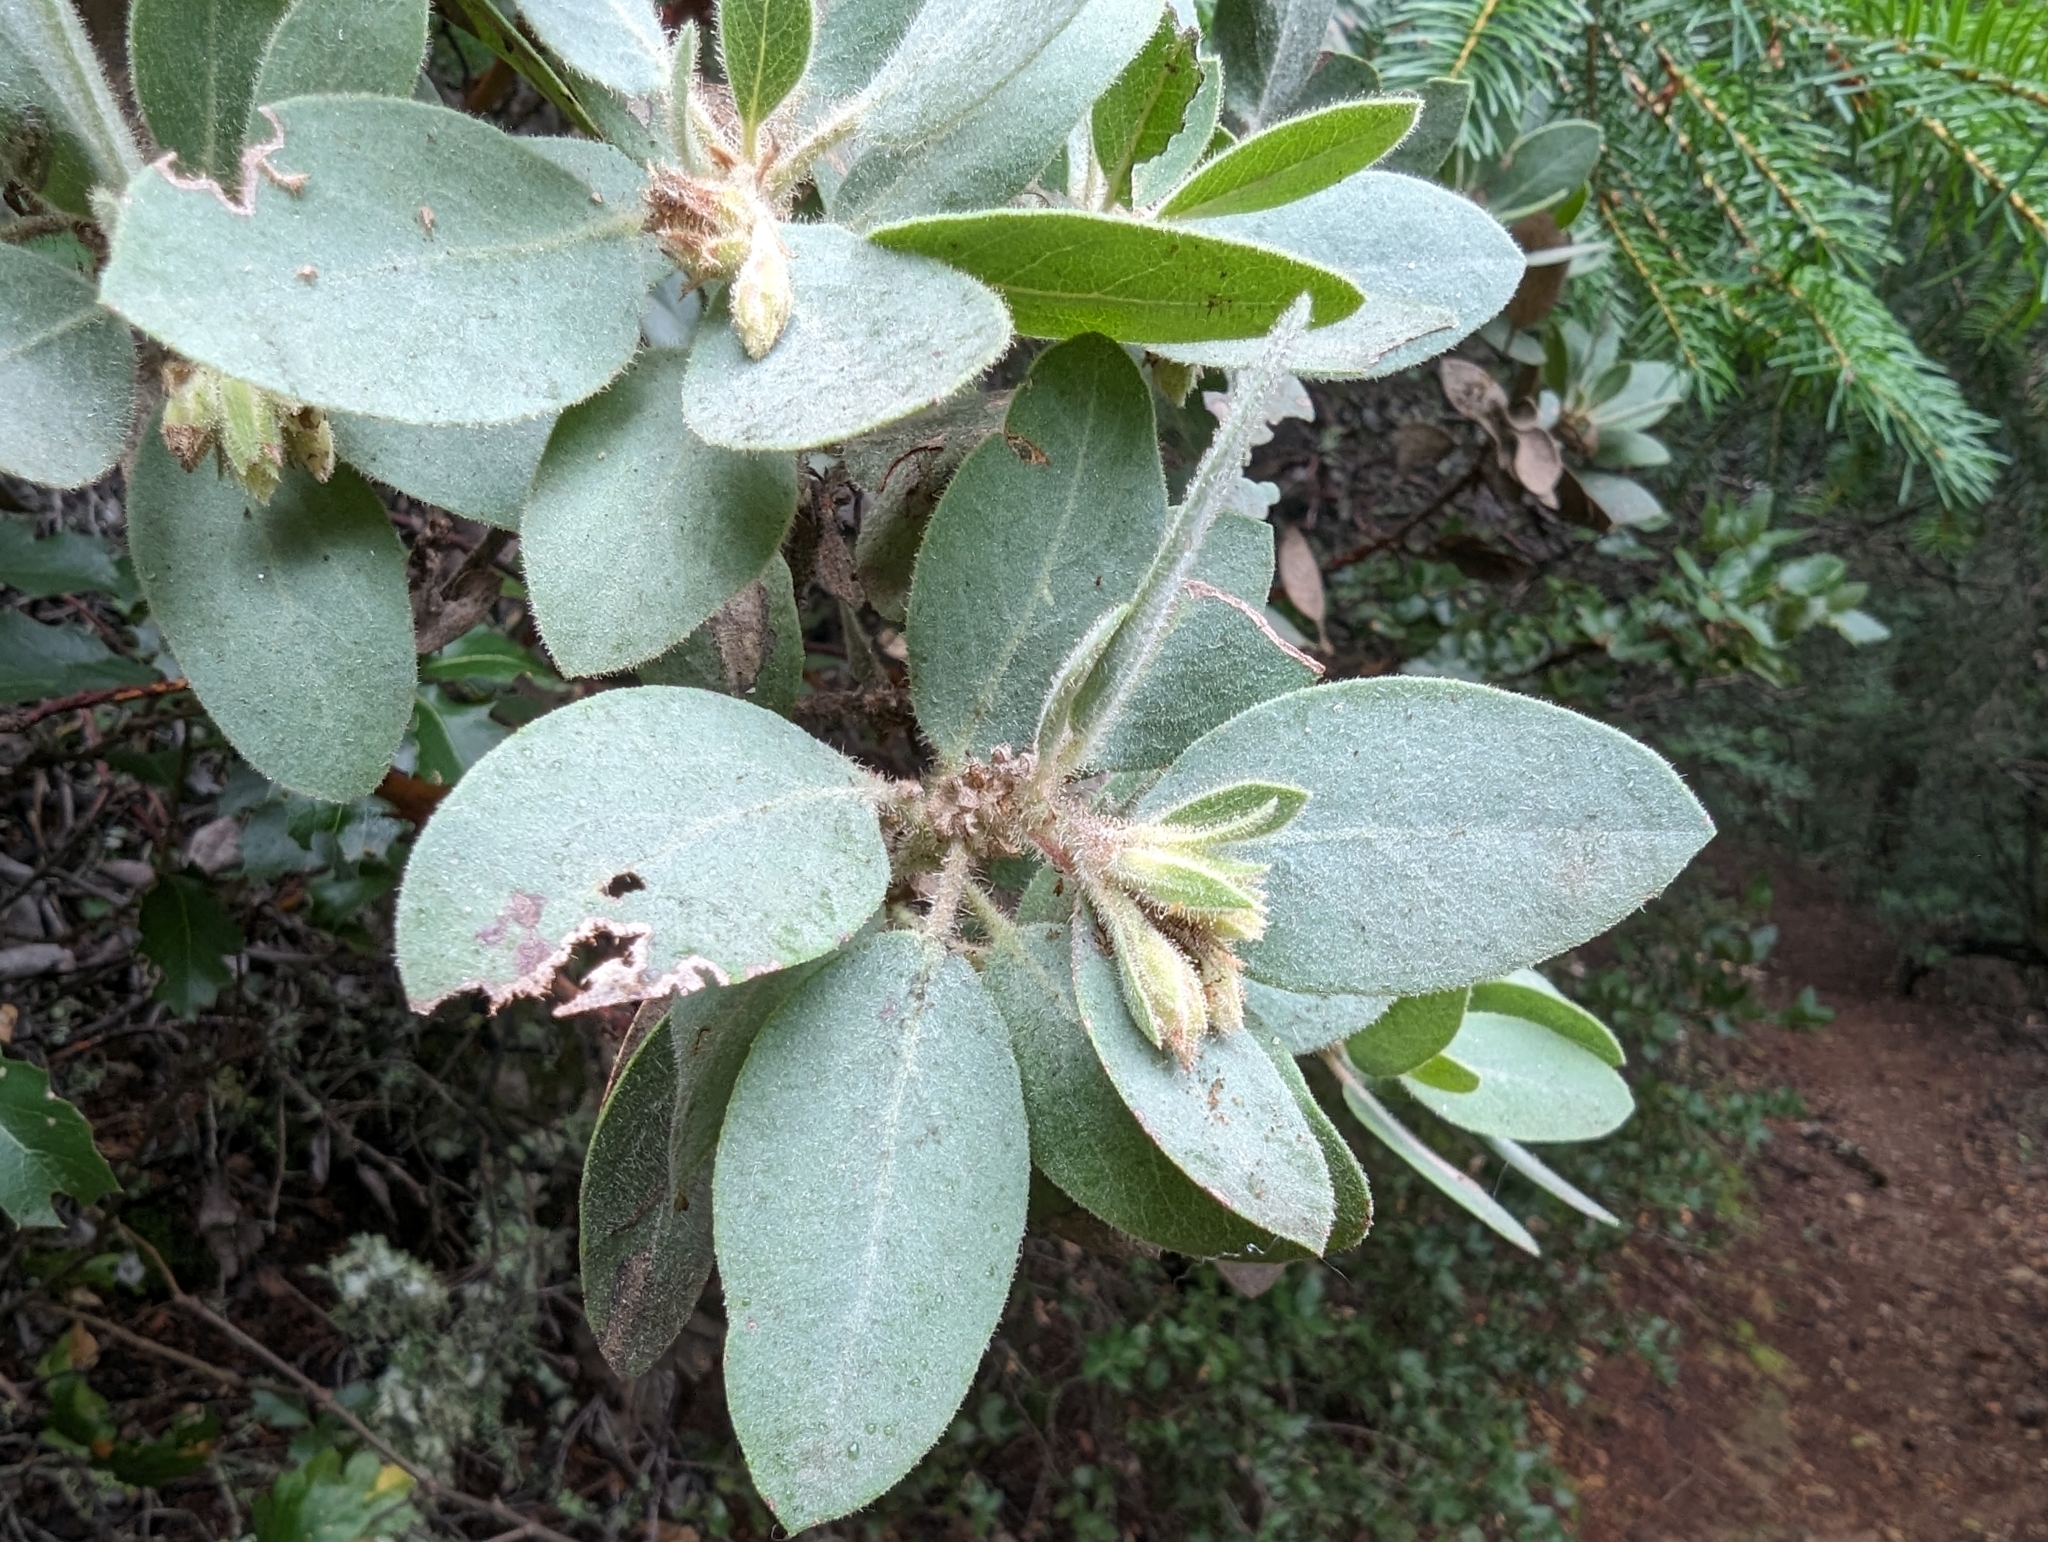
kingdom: Plantae
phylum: Tracheophyta
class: Magnoliopsida
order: Ericales
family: Ericaceae
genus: Arctostaphylos
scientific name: Arctostaphylos glandulosa
